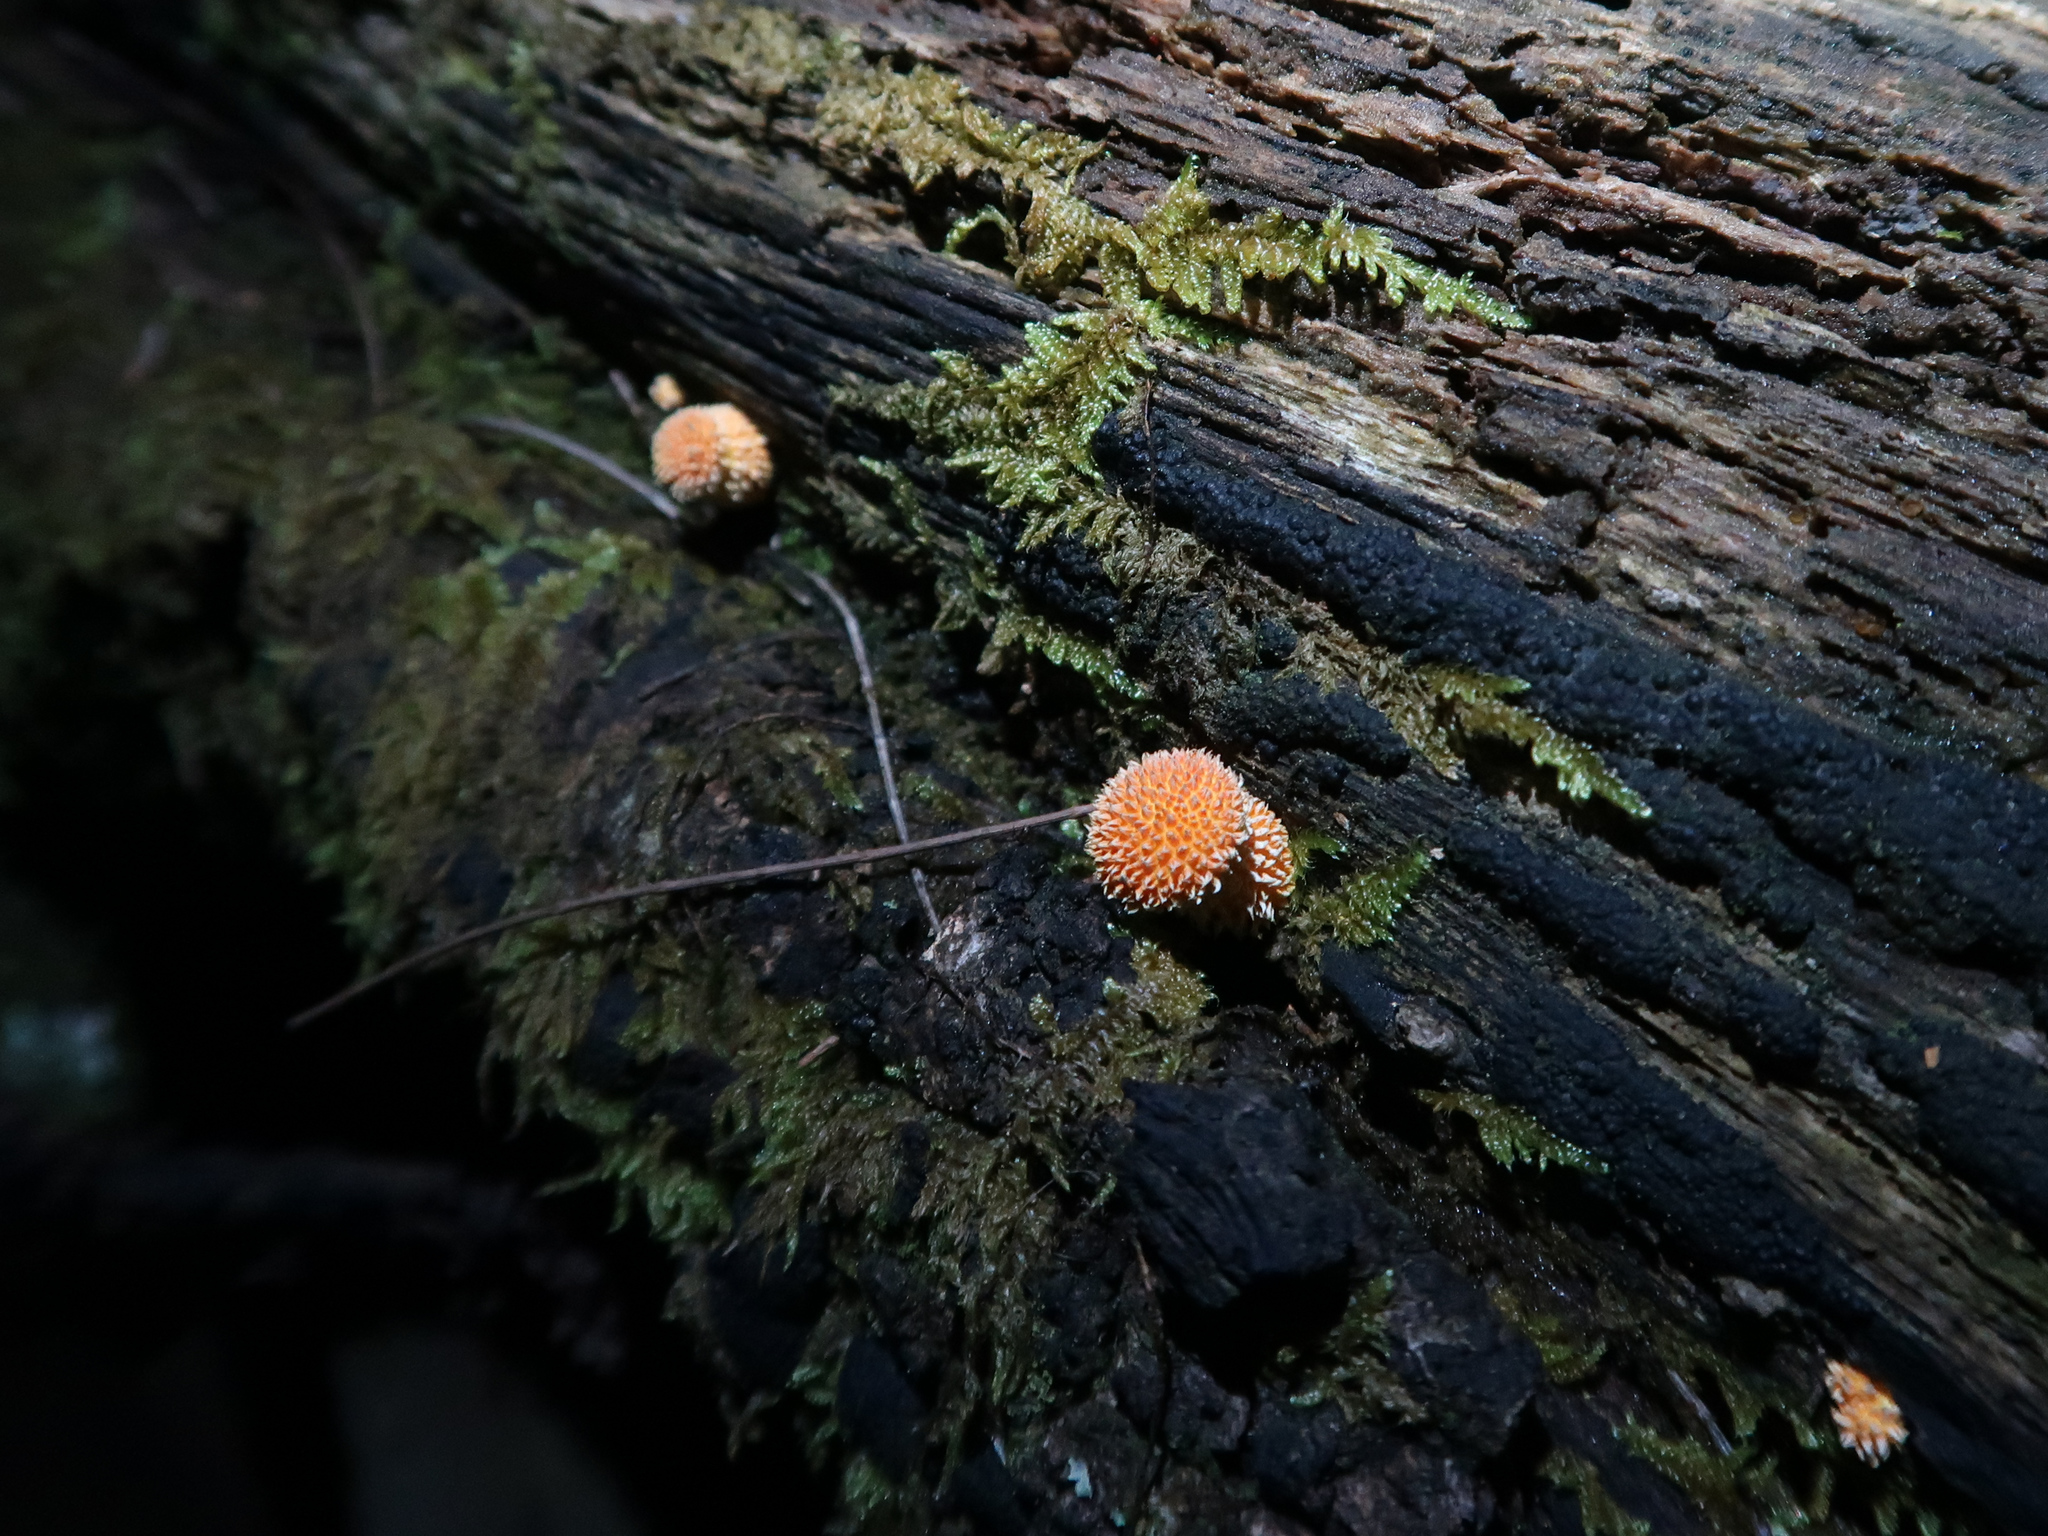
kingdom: Fungi
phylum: Basidiomycota
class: Agaricomycetes
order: Agaricales
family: Physalacriaceae
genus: Cyptotrama
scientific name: Cyptotrama asprata
